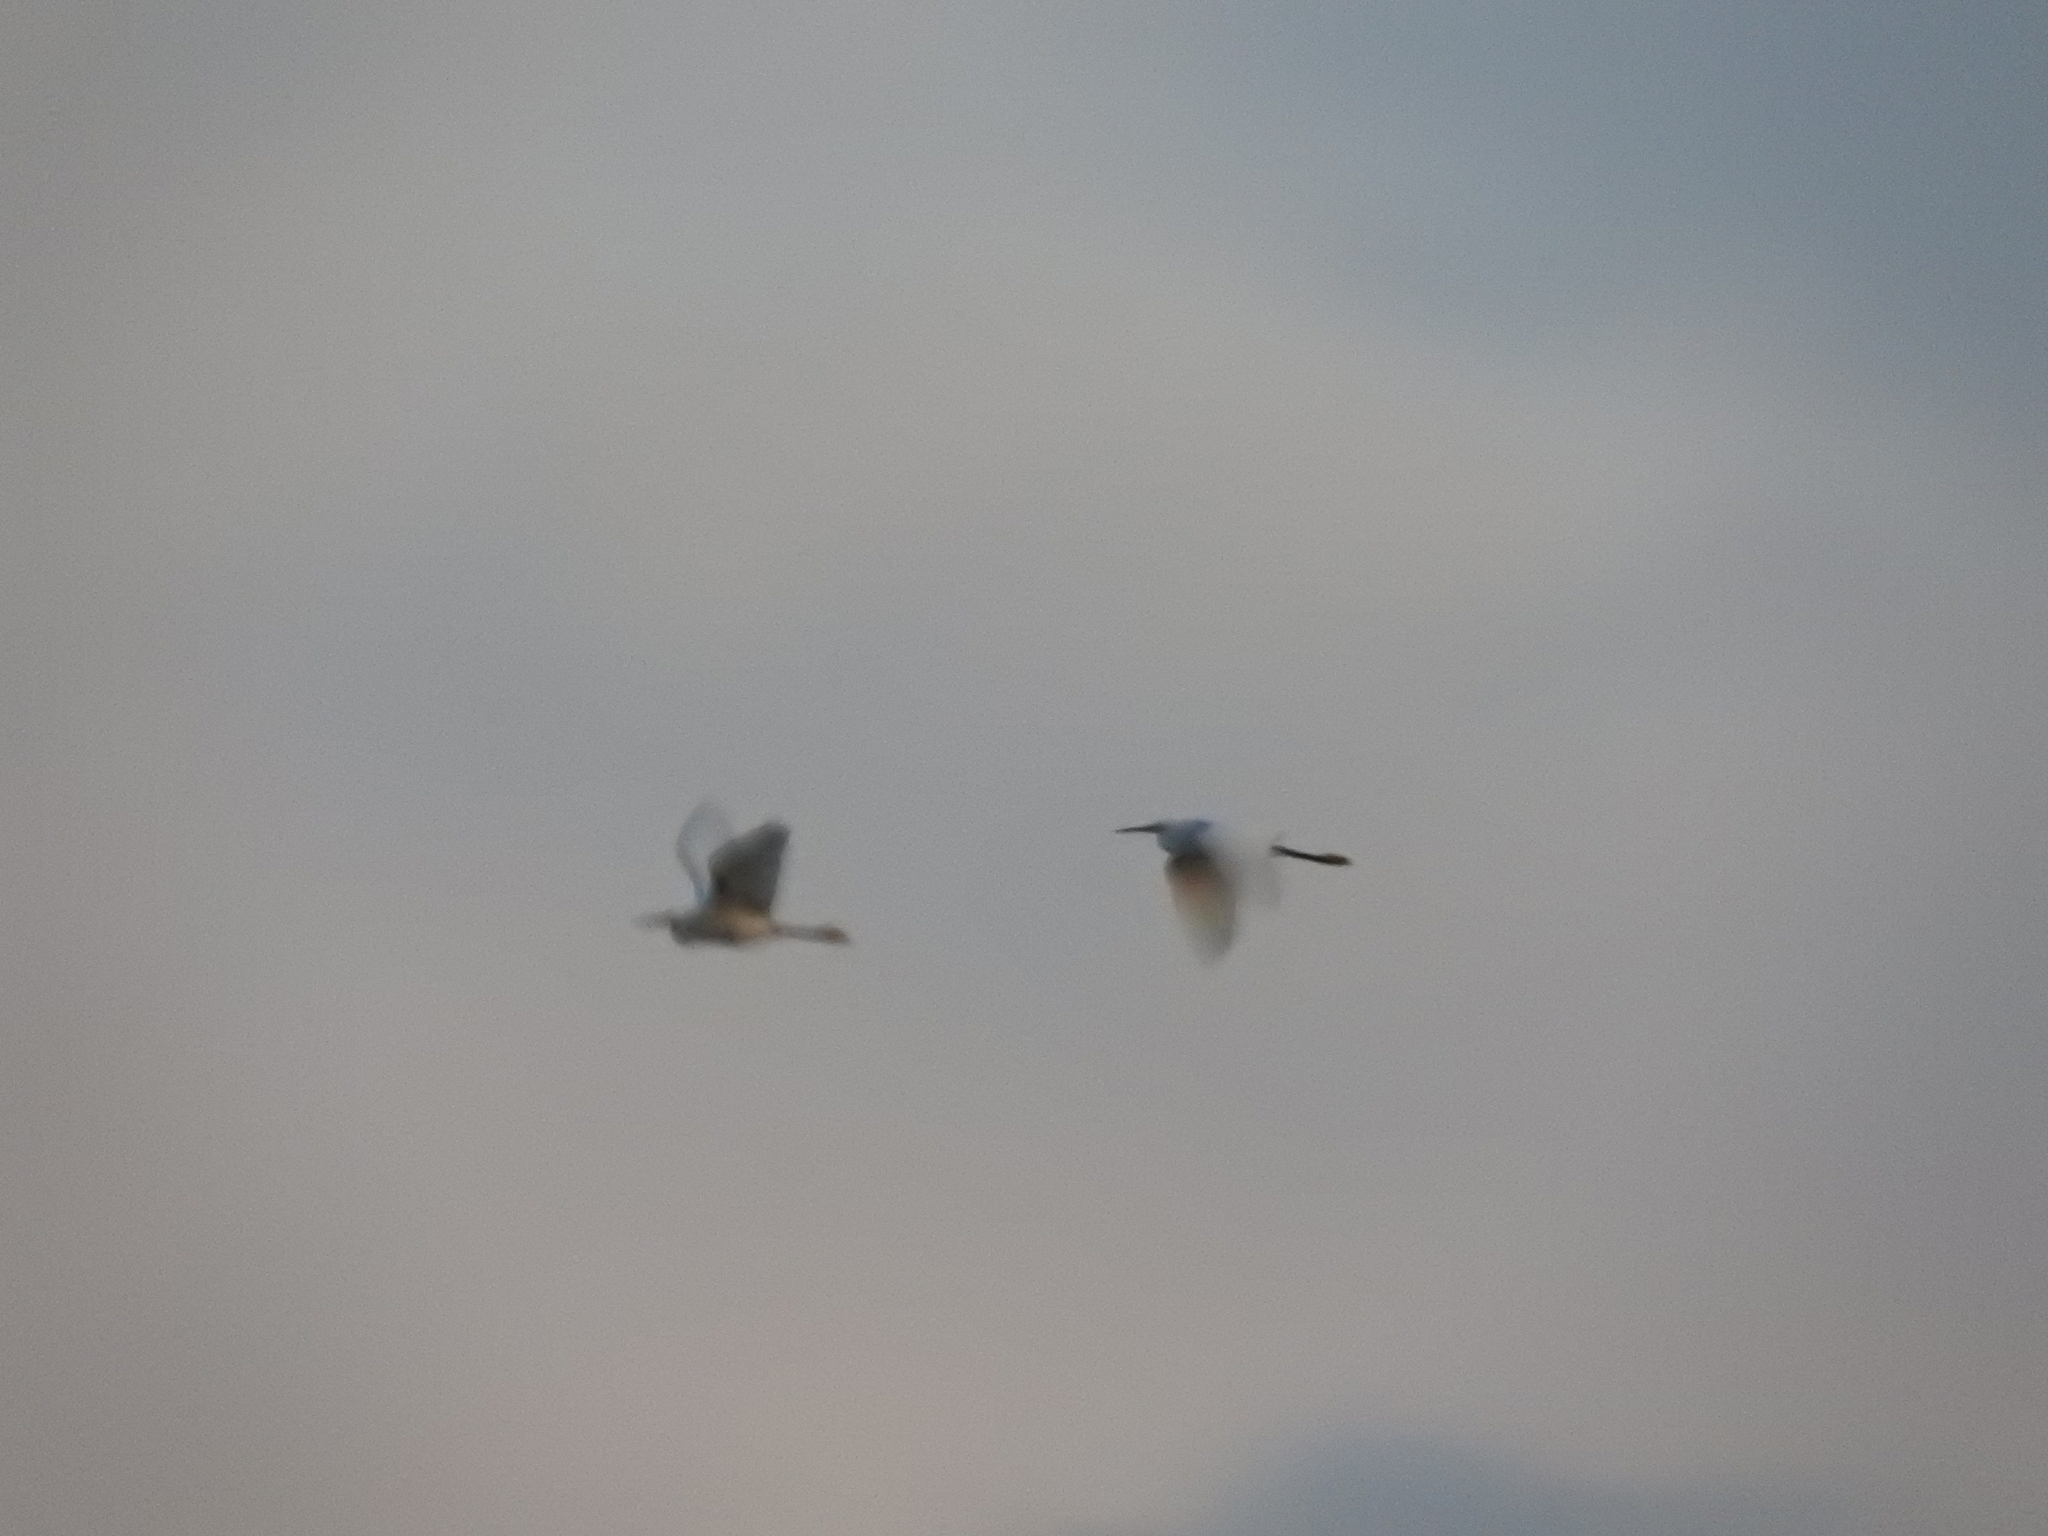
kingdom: Animalia
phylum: Chordata
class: Aves
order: Pelecaniformes
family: Ardeidae
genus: Egretta
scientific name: Egretta thula
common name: Snowy egret
